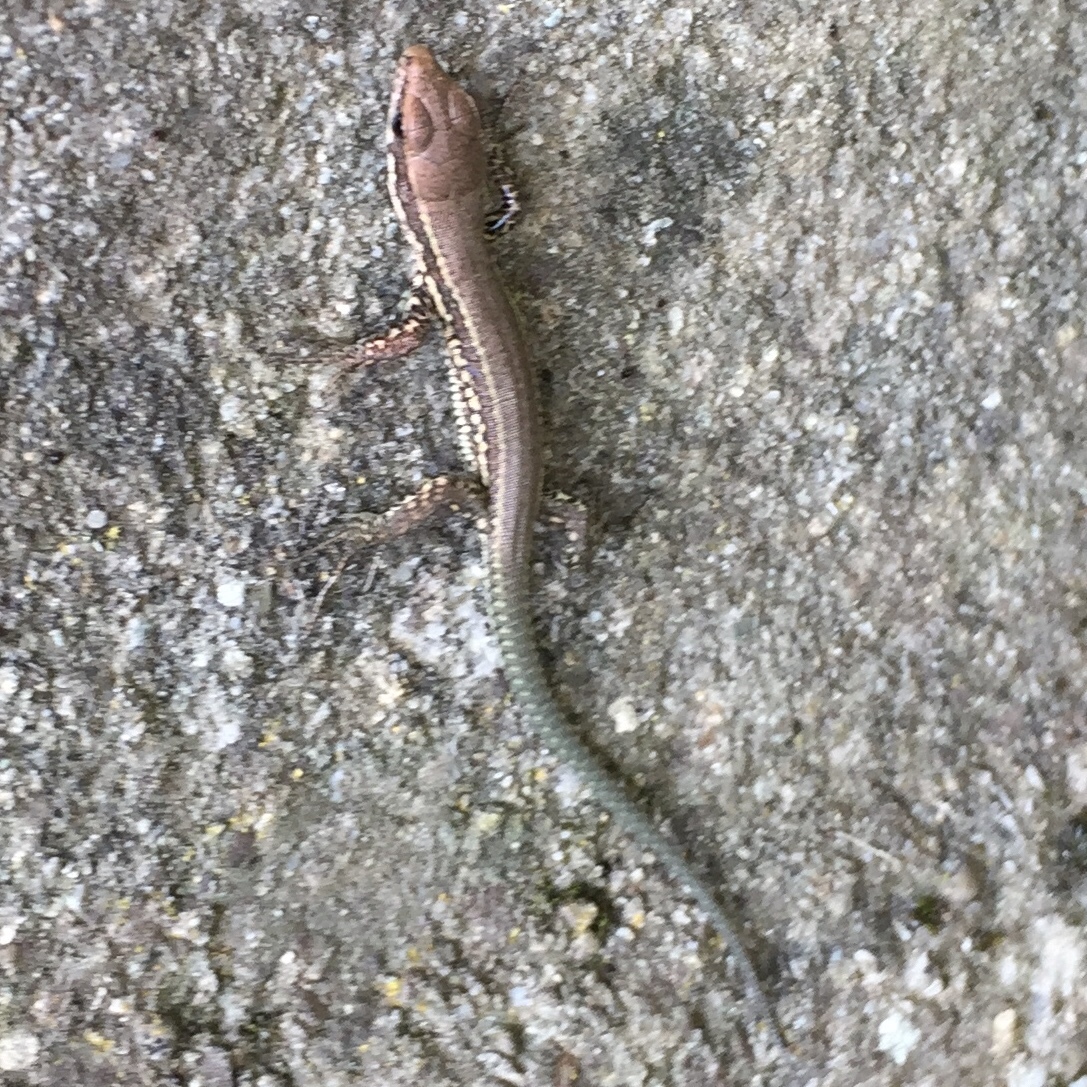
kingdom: Animalia
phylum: Chordata
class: Squamata
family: Lacertidae
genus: Podarcis
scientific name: Podarcis muralis
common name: Common wall lizard
